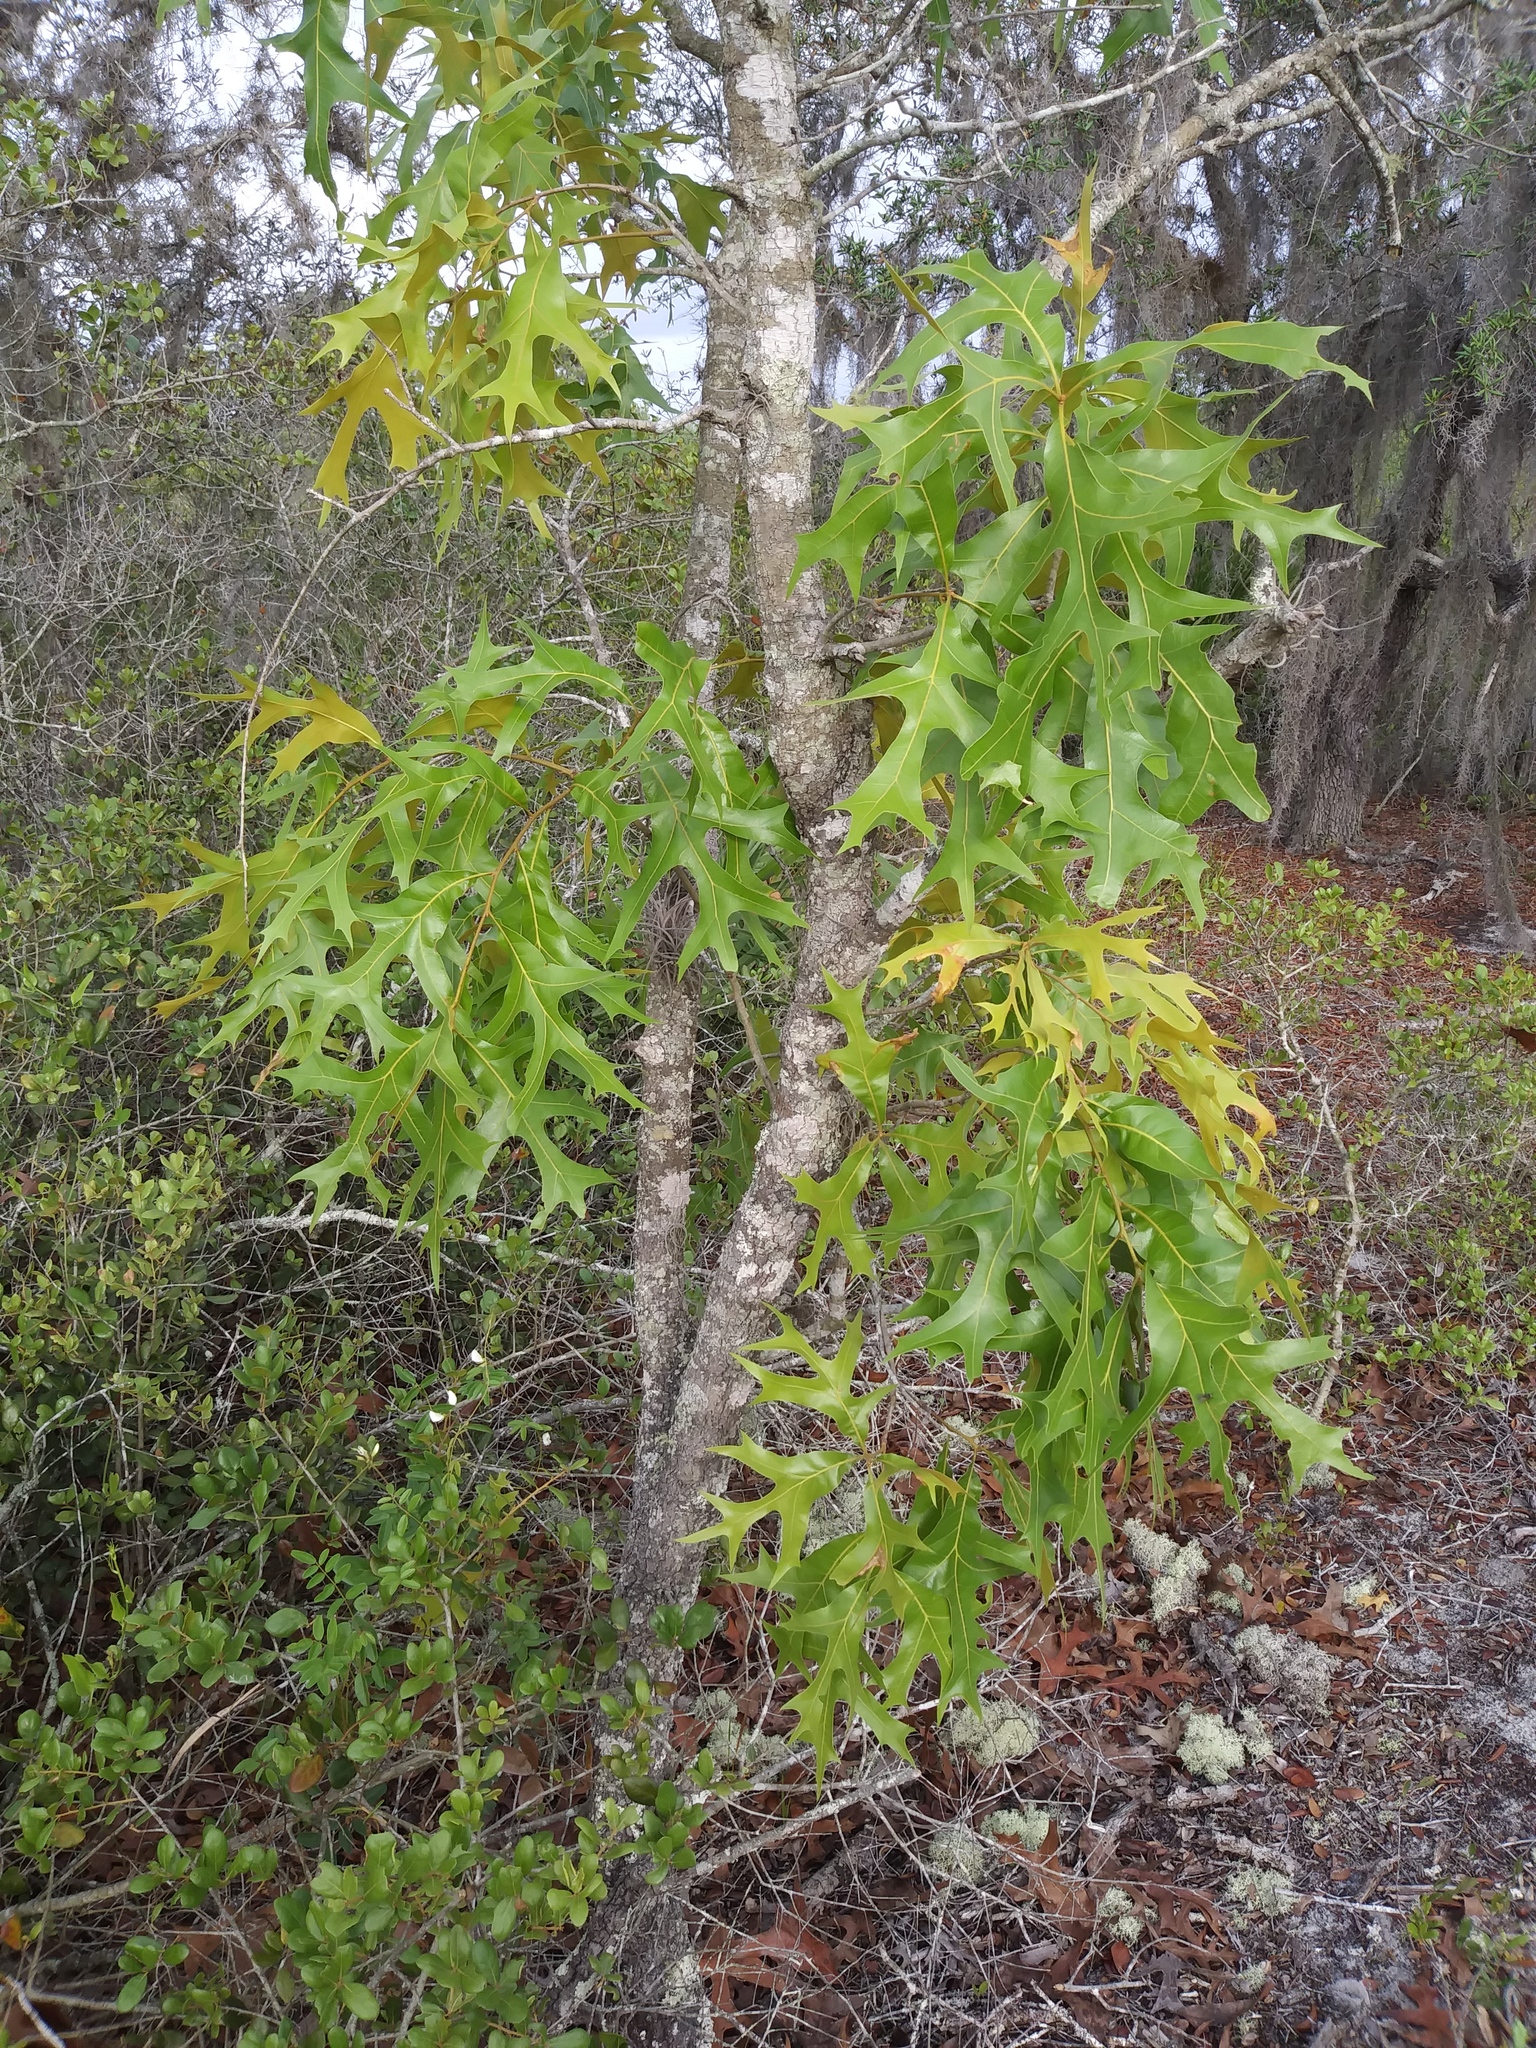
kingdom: Plantae
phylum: Tracheophyta
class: Magnoliopsida
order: Fagales
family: Fagaceae
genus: Quercus
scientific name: Quercus laevis
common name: Turkey oak
